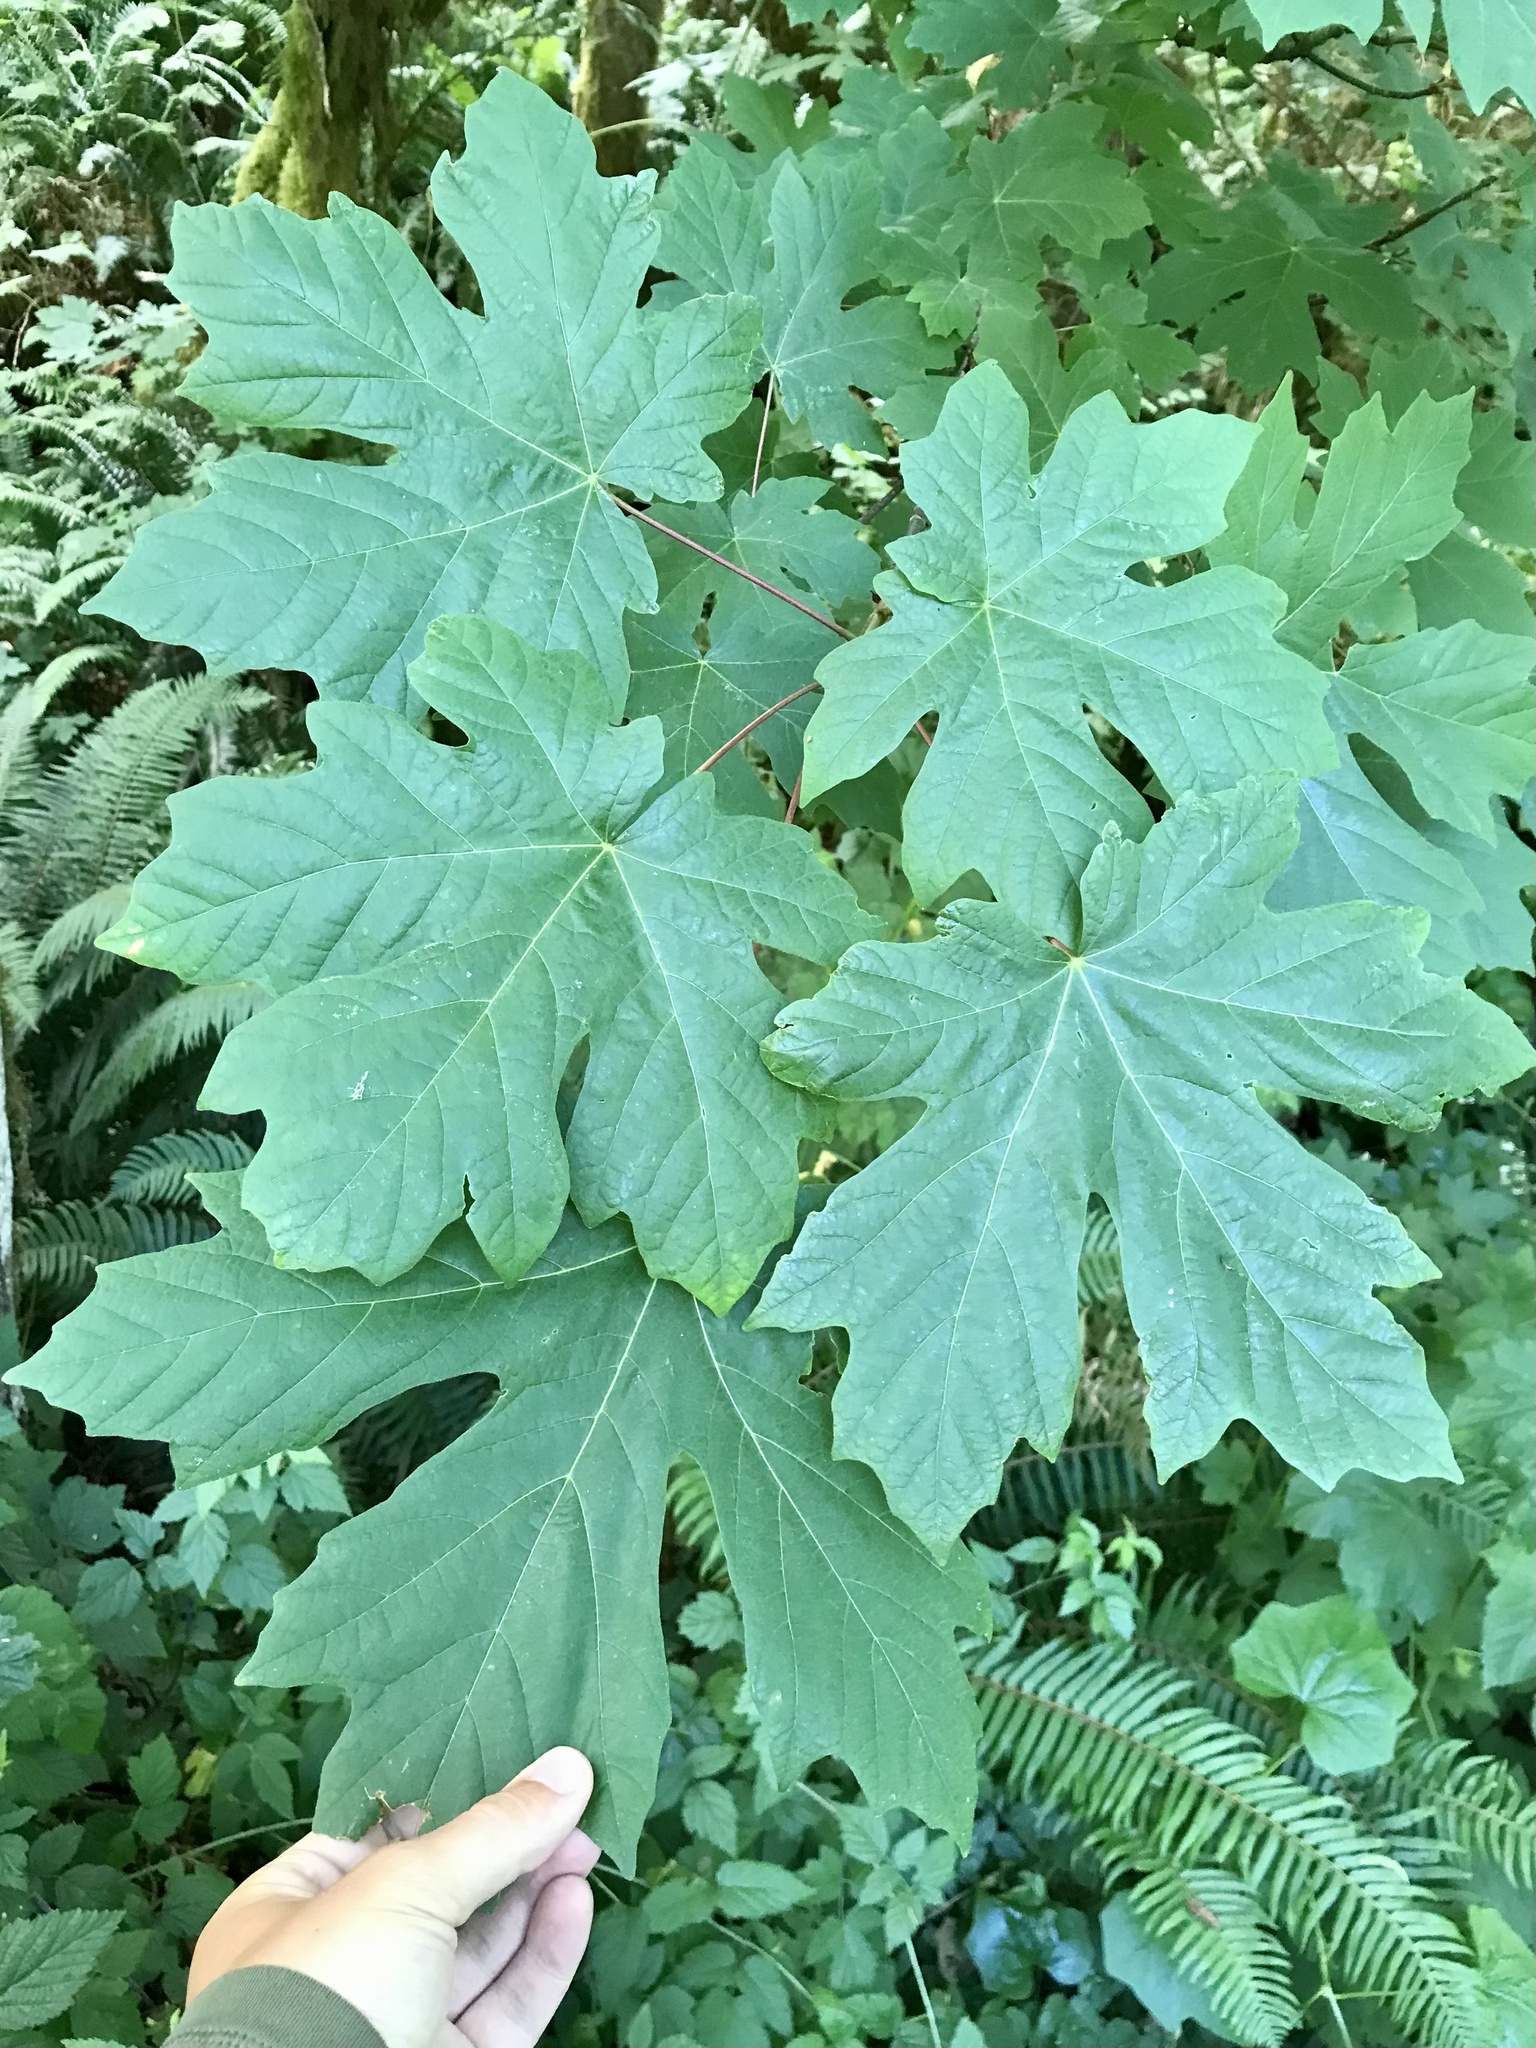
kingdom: Plantae
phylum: Tracheophyta
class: Magnoliopsida
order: Sapindales
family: Sapindaceae
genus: Acer
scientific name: Acer macrophyllum
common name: Oregon maple
